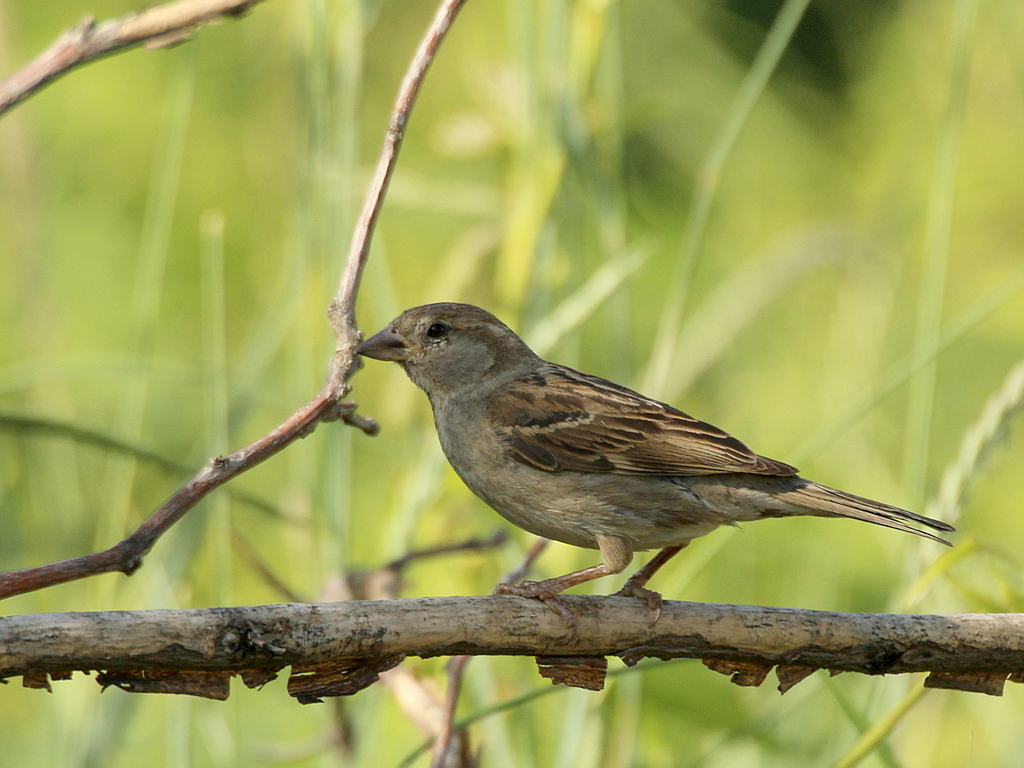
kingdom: Animalia
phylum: Chordata
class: Aves
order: Passeriformes
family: Passeridae
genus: Passer
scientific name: Passer domesticus
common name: House sparrow
